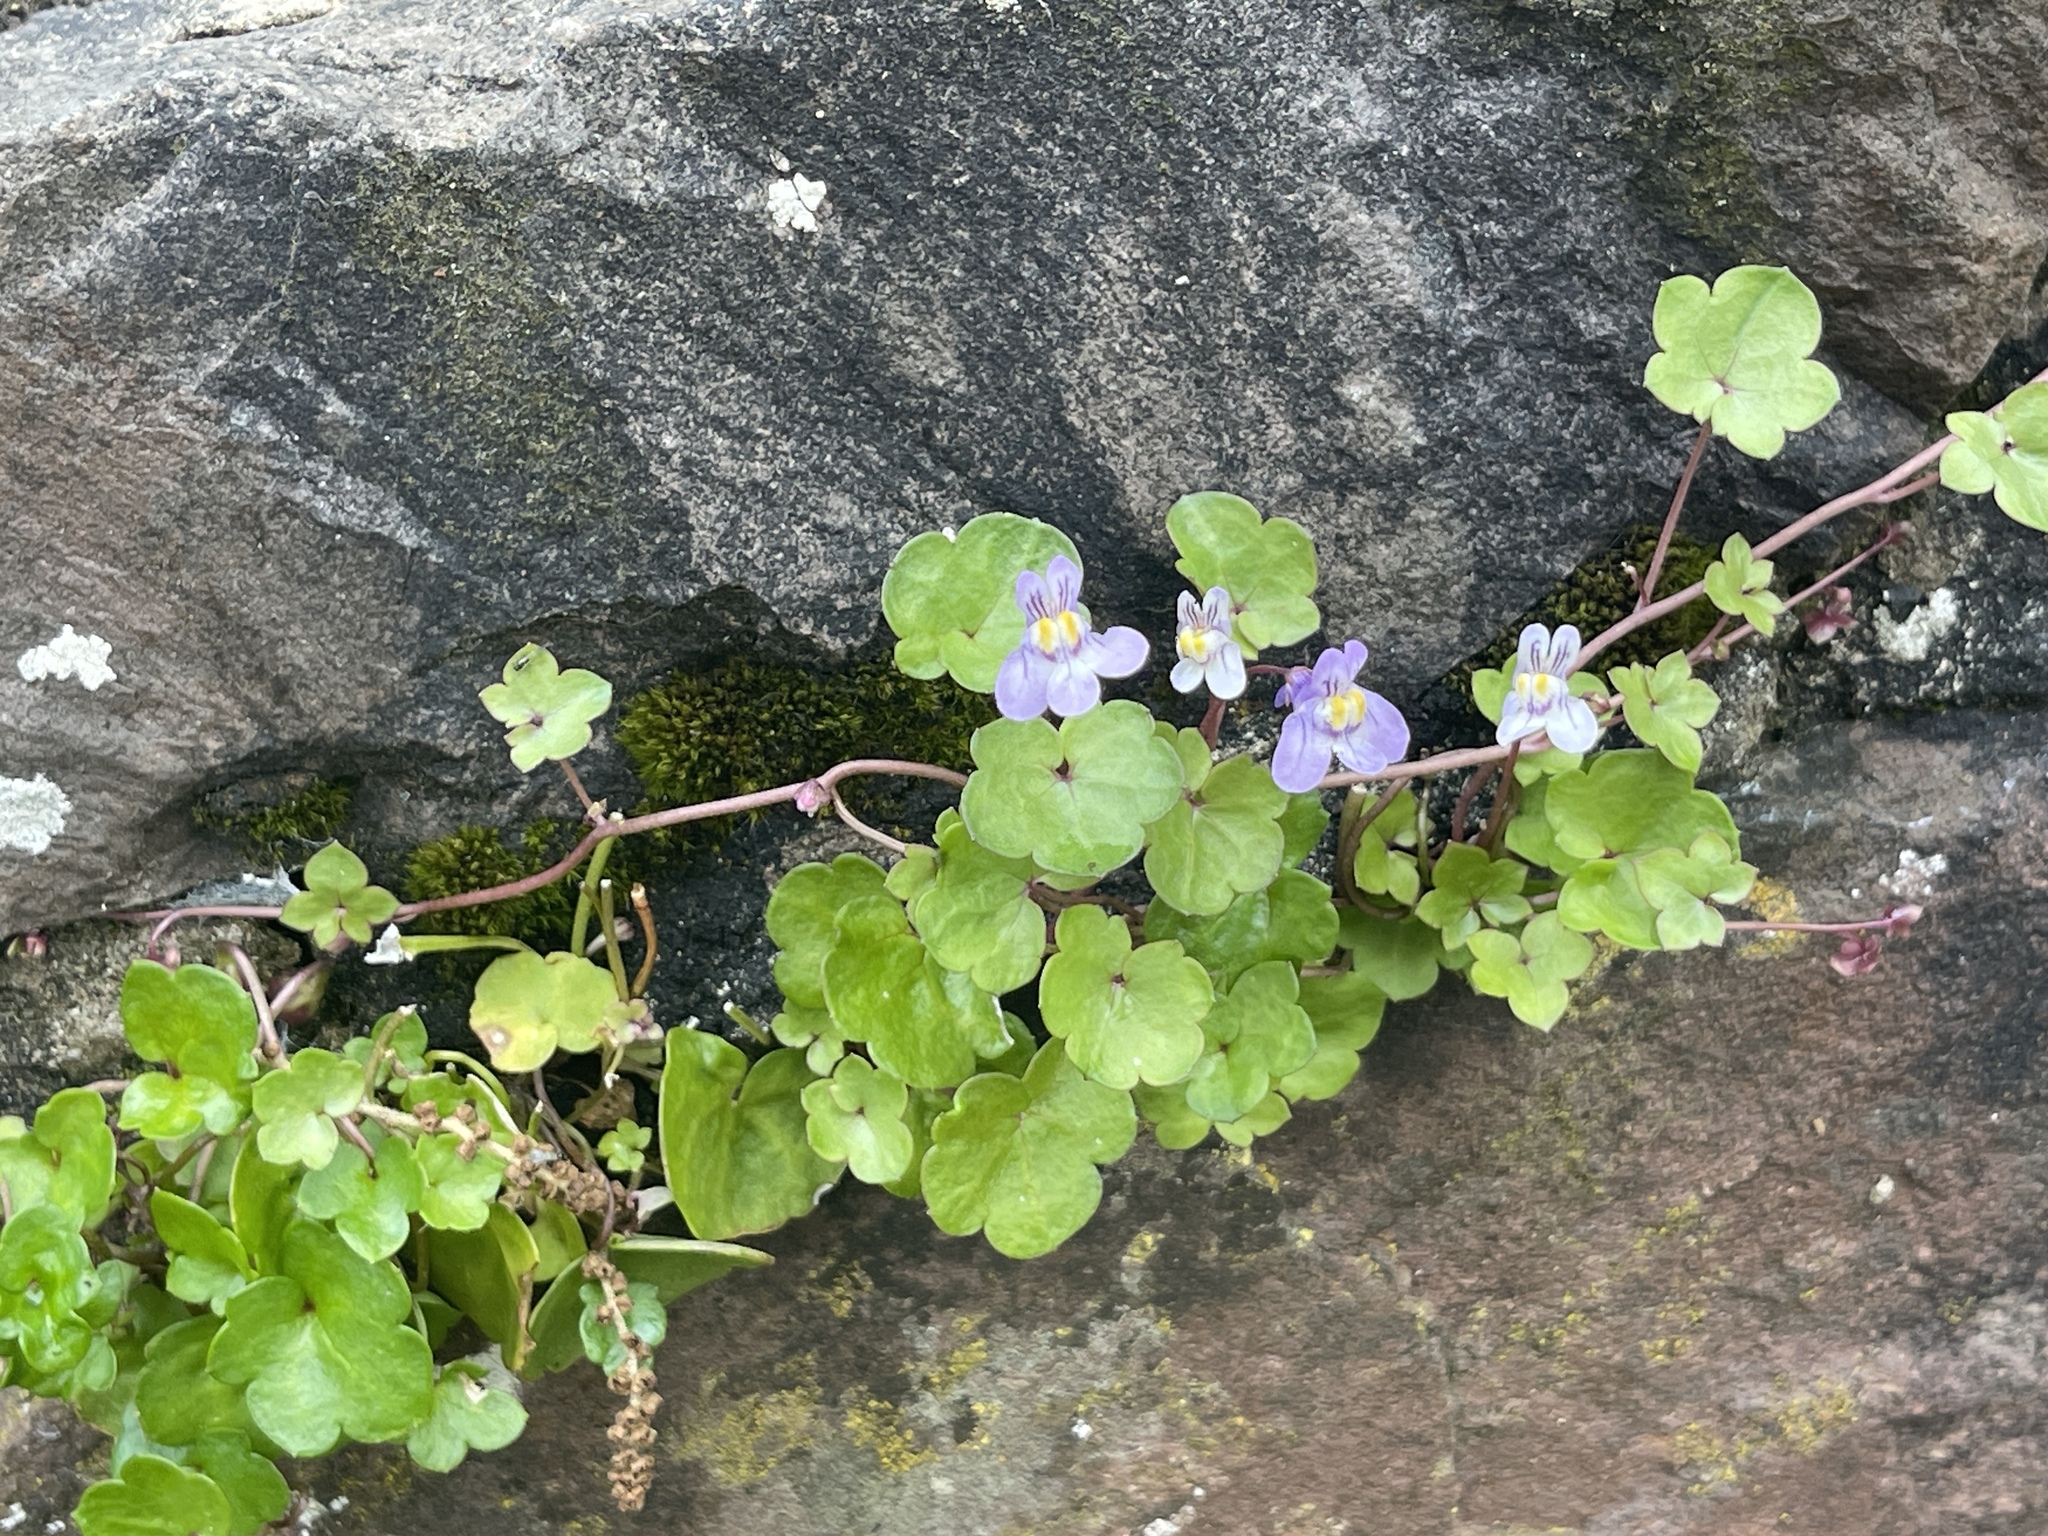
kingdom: Plantae
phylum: Tracheophyta
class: Magnoliopsida
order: Lamiales
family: Plantaginaceae
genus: Cymbalaria
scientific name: Cymbalaria muralis
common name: Ivy-leaved toadflax
